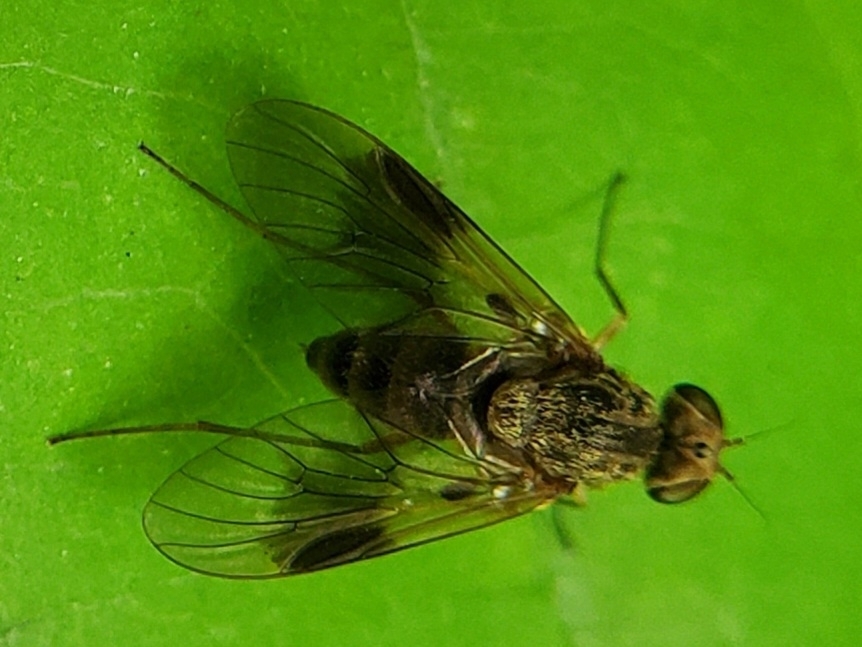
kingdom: Animalia
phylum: Arthropoda
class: Insecta
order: Diptera
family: Rhagionidae
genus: Chrysopilus
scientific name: Chrysopilus quadratus
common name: Quadrate snipe fly
